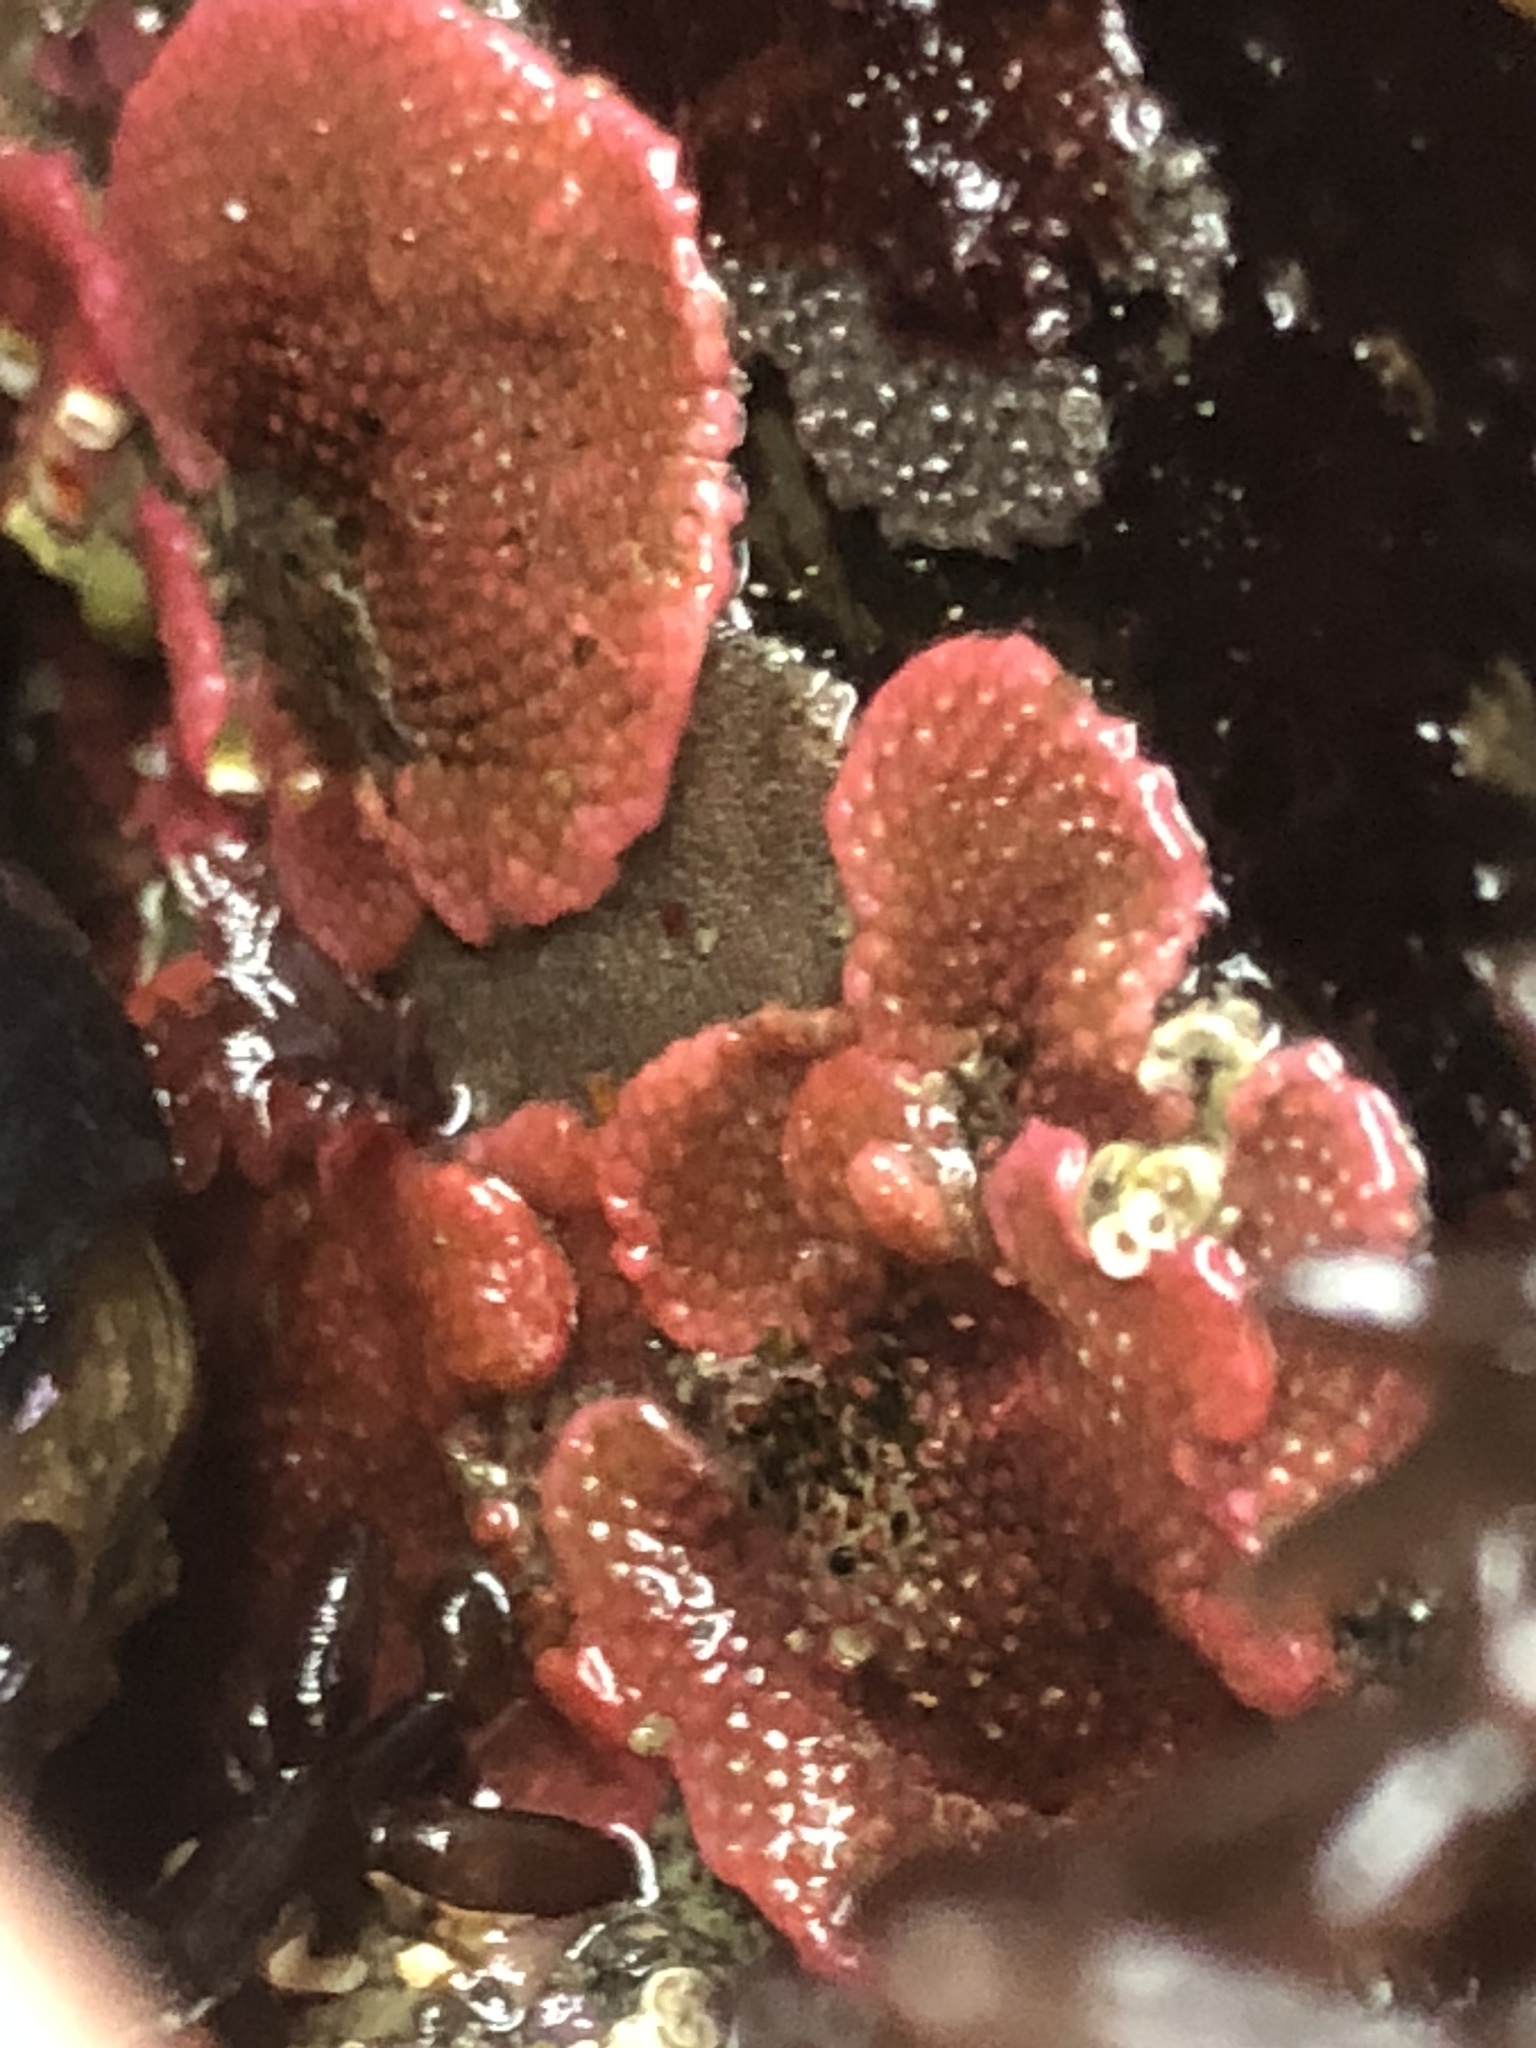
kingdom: Animalia
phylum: Bryozoa
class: Gymnolaemata
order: Cheilostomatida
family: Eurystomellidae
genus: Integripelta
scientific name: Integripelta bilabiata
